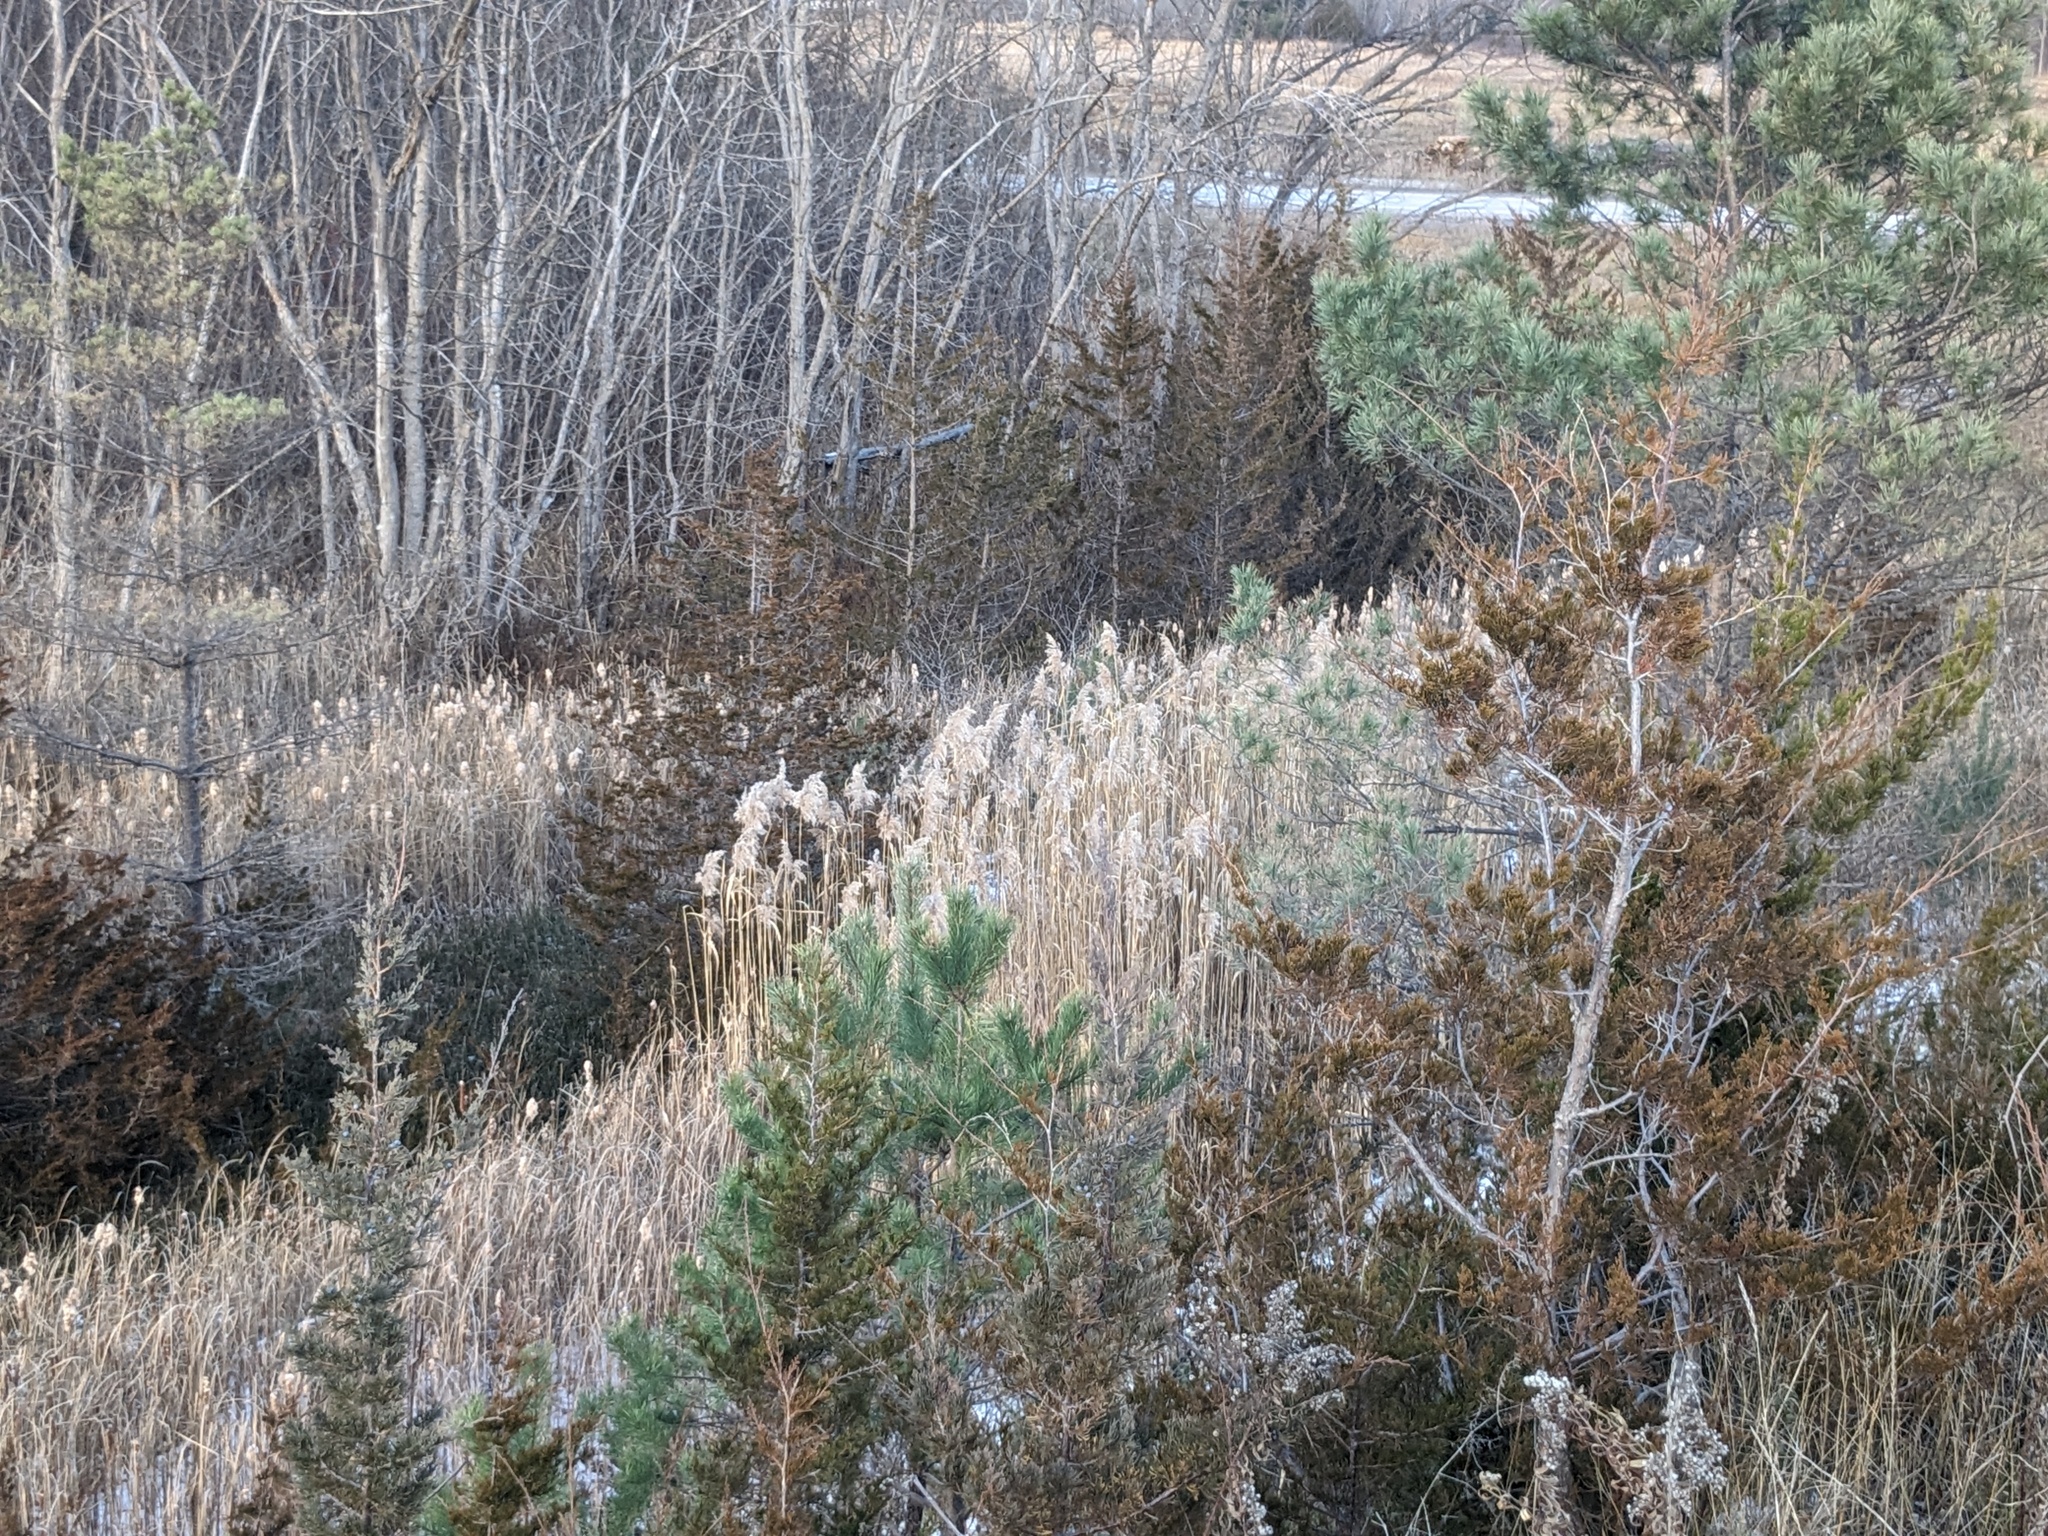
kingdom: Plantae
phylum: Tracheophyta
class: Liliopsida
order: Poales
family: Poaceae
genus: Phragmites
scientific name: Phragmites australis
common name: Common reed
